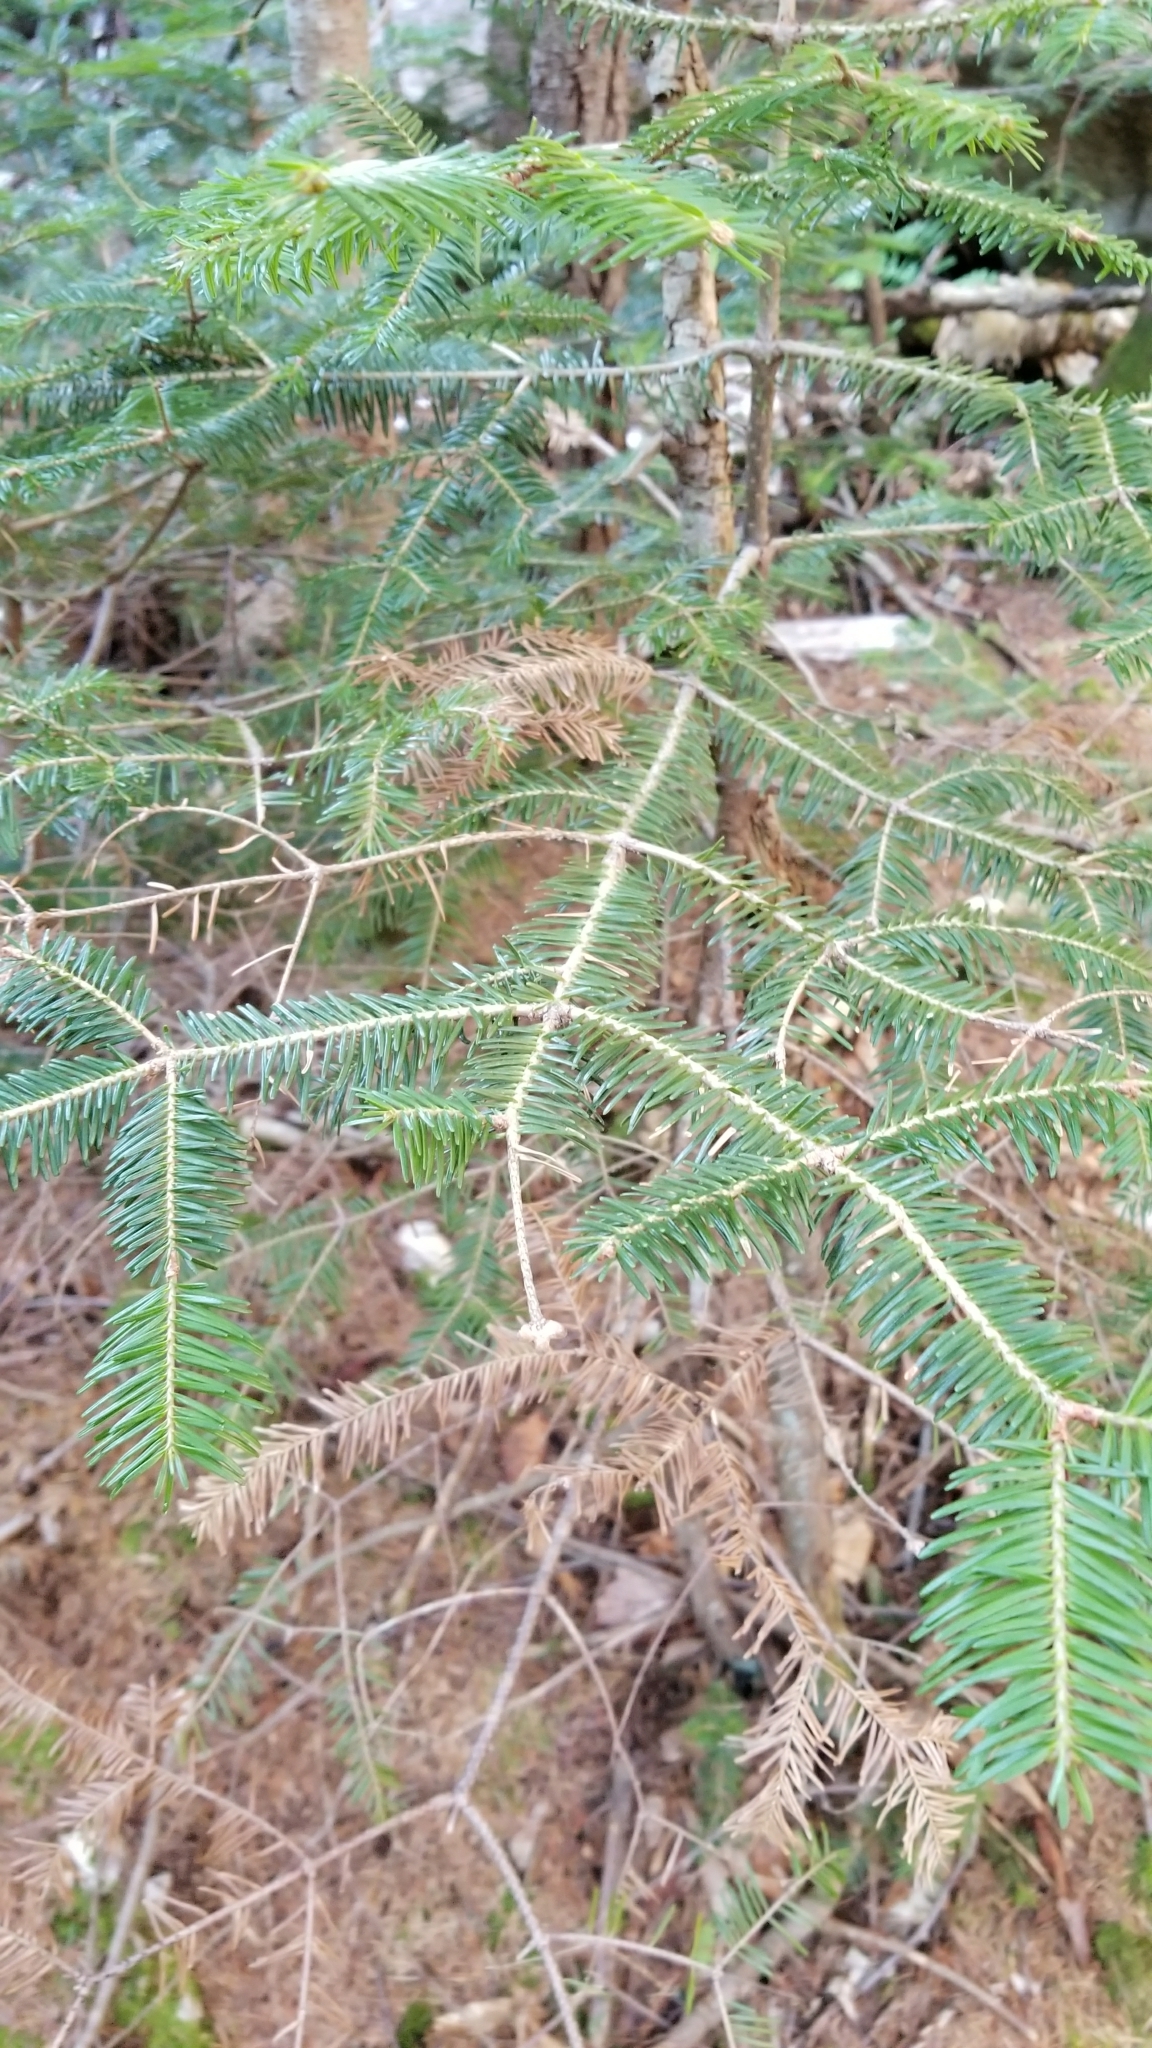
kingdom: Plantae
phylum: Tracheophyta
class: Pinopsida
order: Pinales
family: Pinaceae
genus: Abies
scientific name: Abies balsamea
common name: Balsam fir
